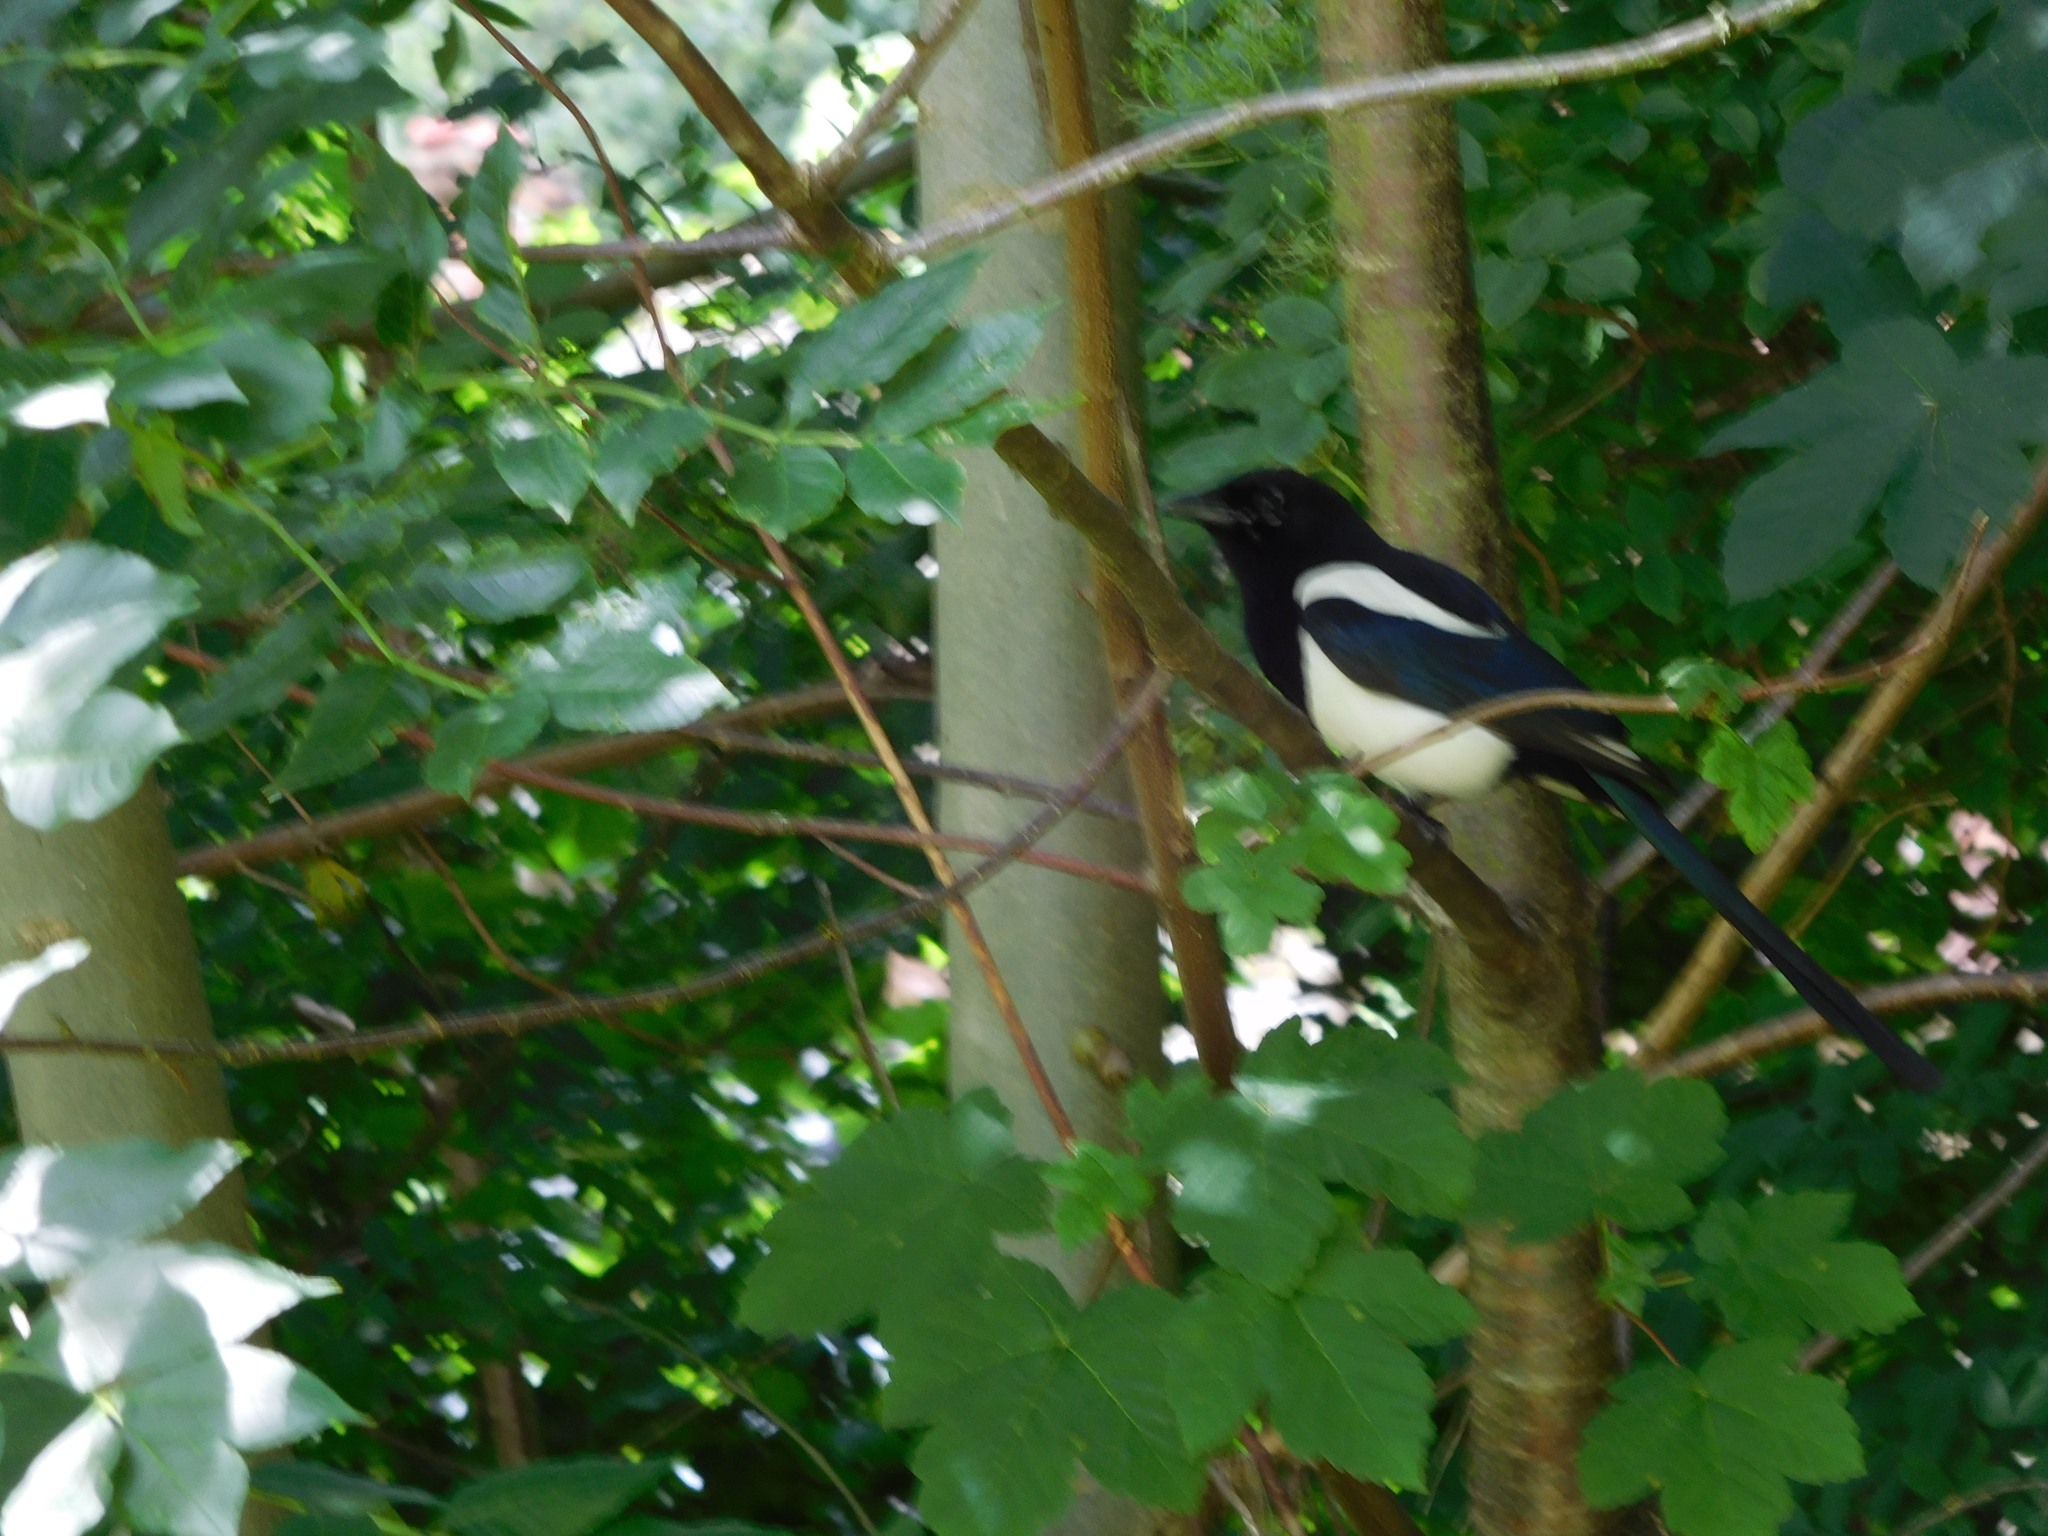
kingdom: Animalia
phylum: Chordata
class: Aves
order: Passeriformes
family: Corvidae
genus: Pica
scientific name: Pica pica
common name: Eurasian magpie
